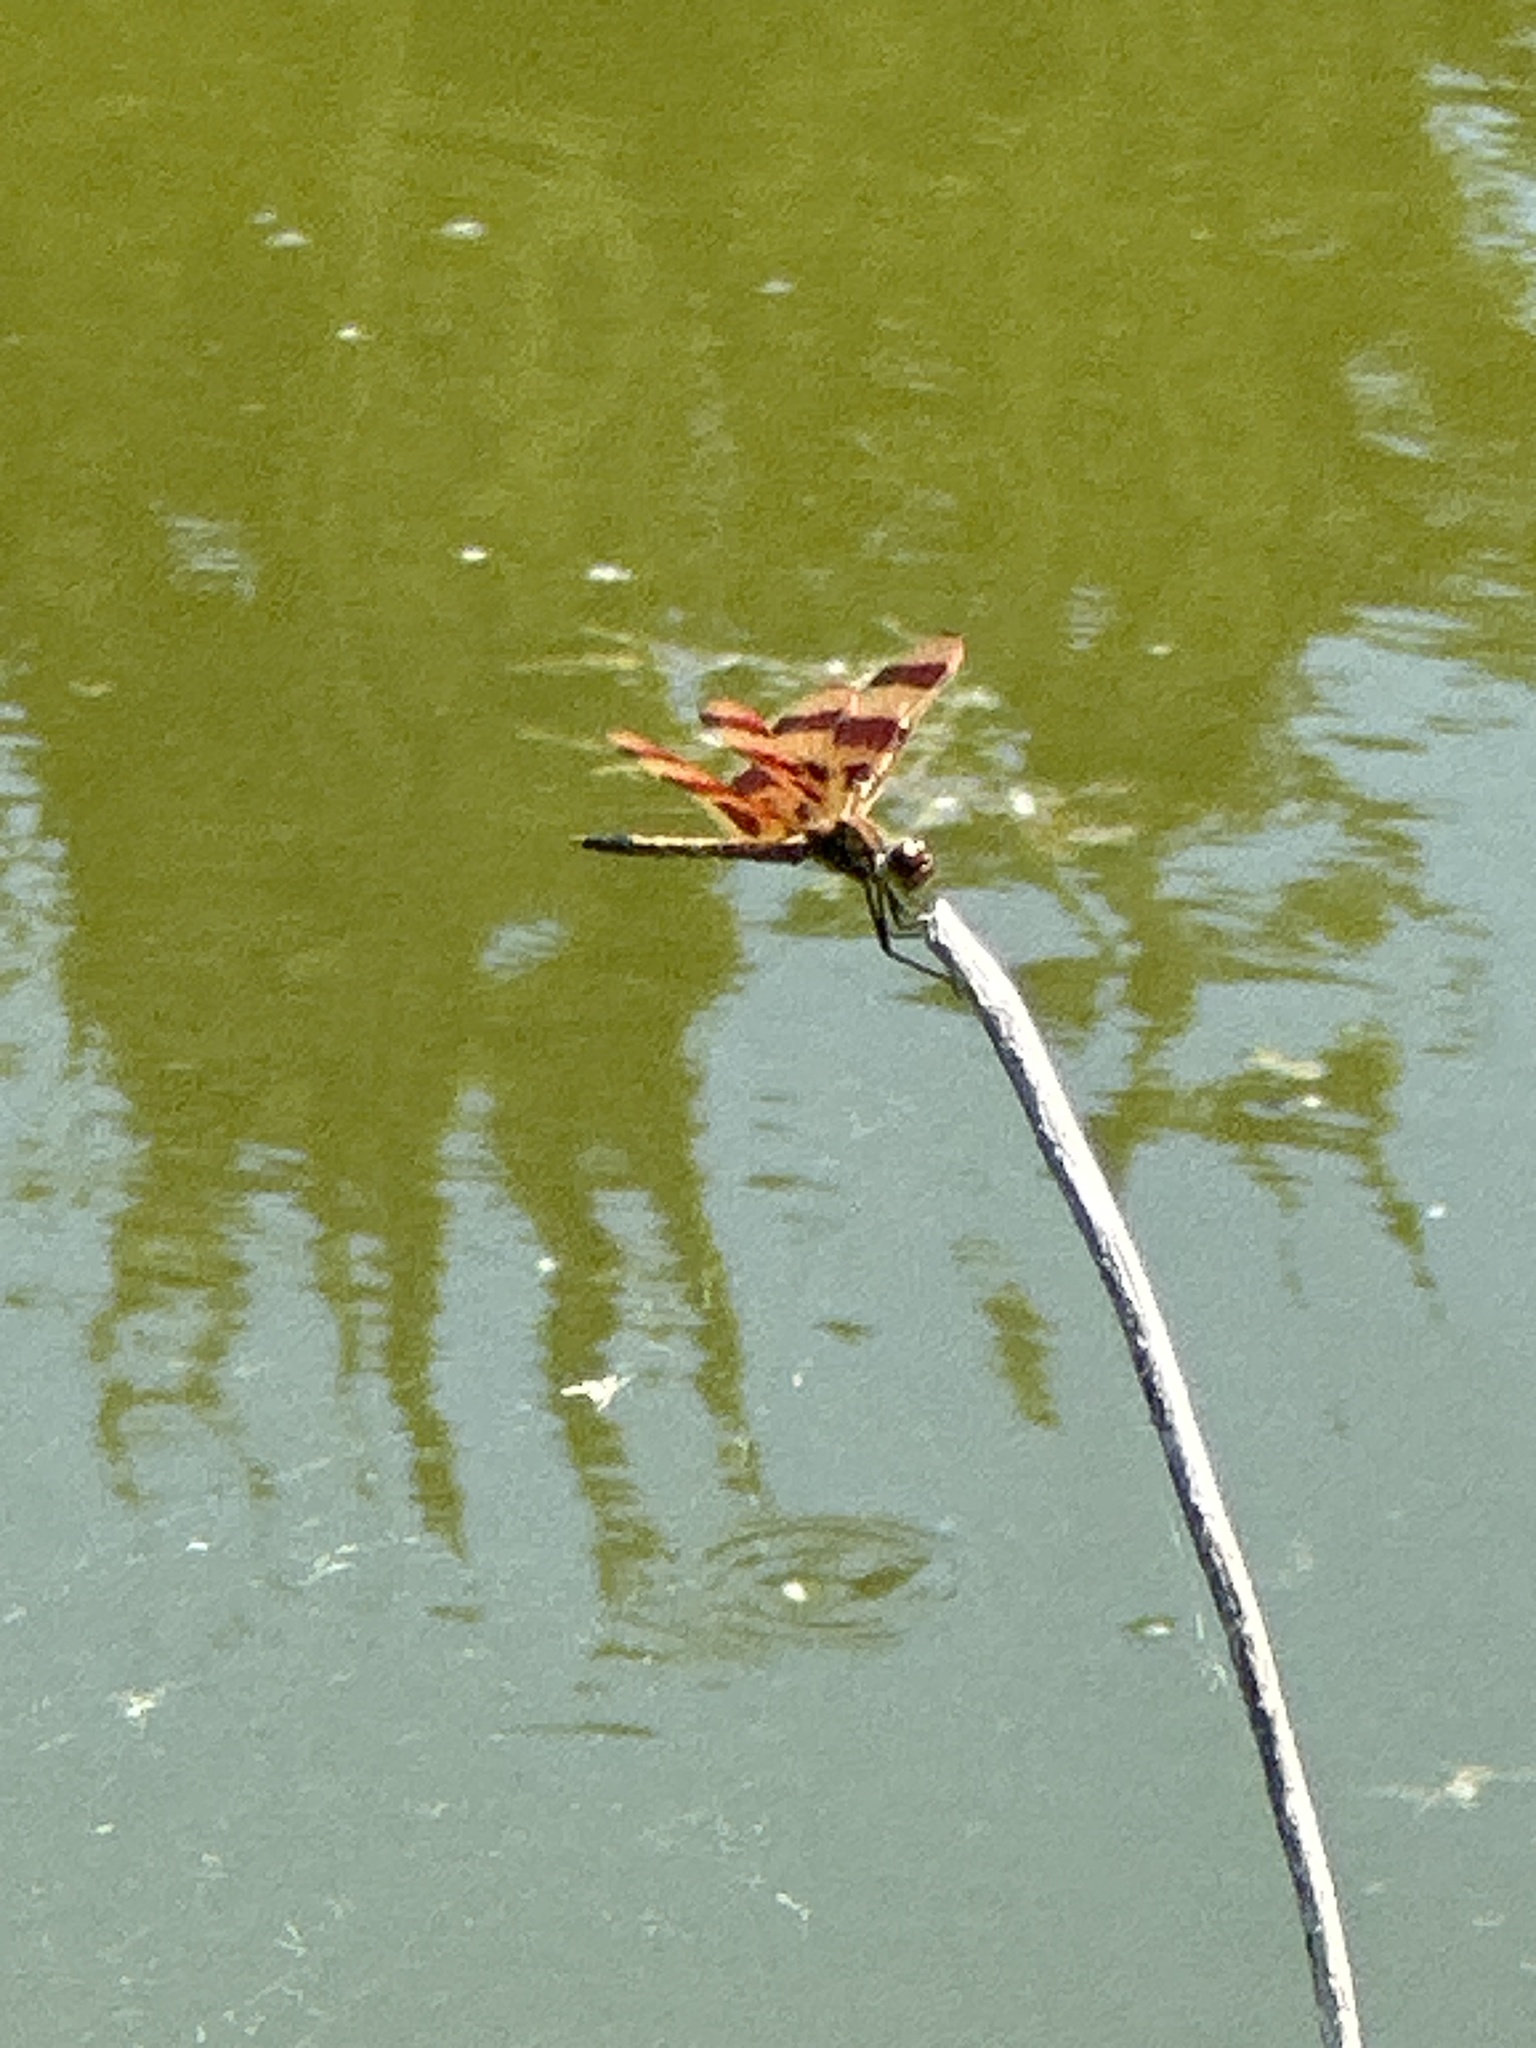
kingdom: Animalia
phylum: Arthropoda
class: Insecta
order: Odonata
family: Libellulidae
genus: Celithemis
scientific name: Celithemis eponina
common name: Halloween pennant
